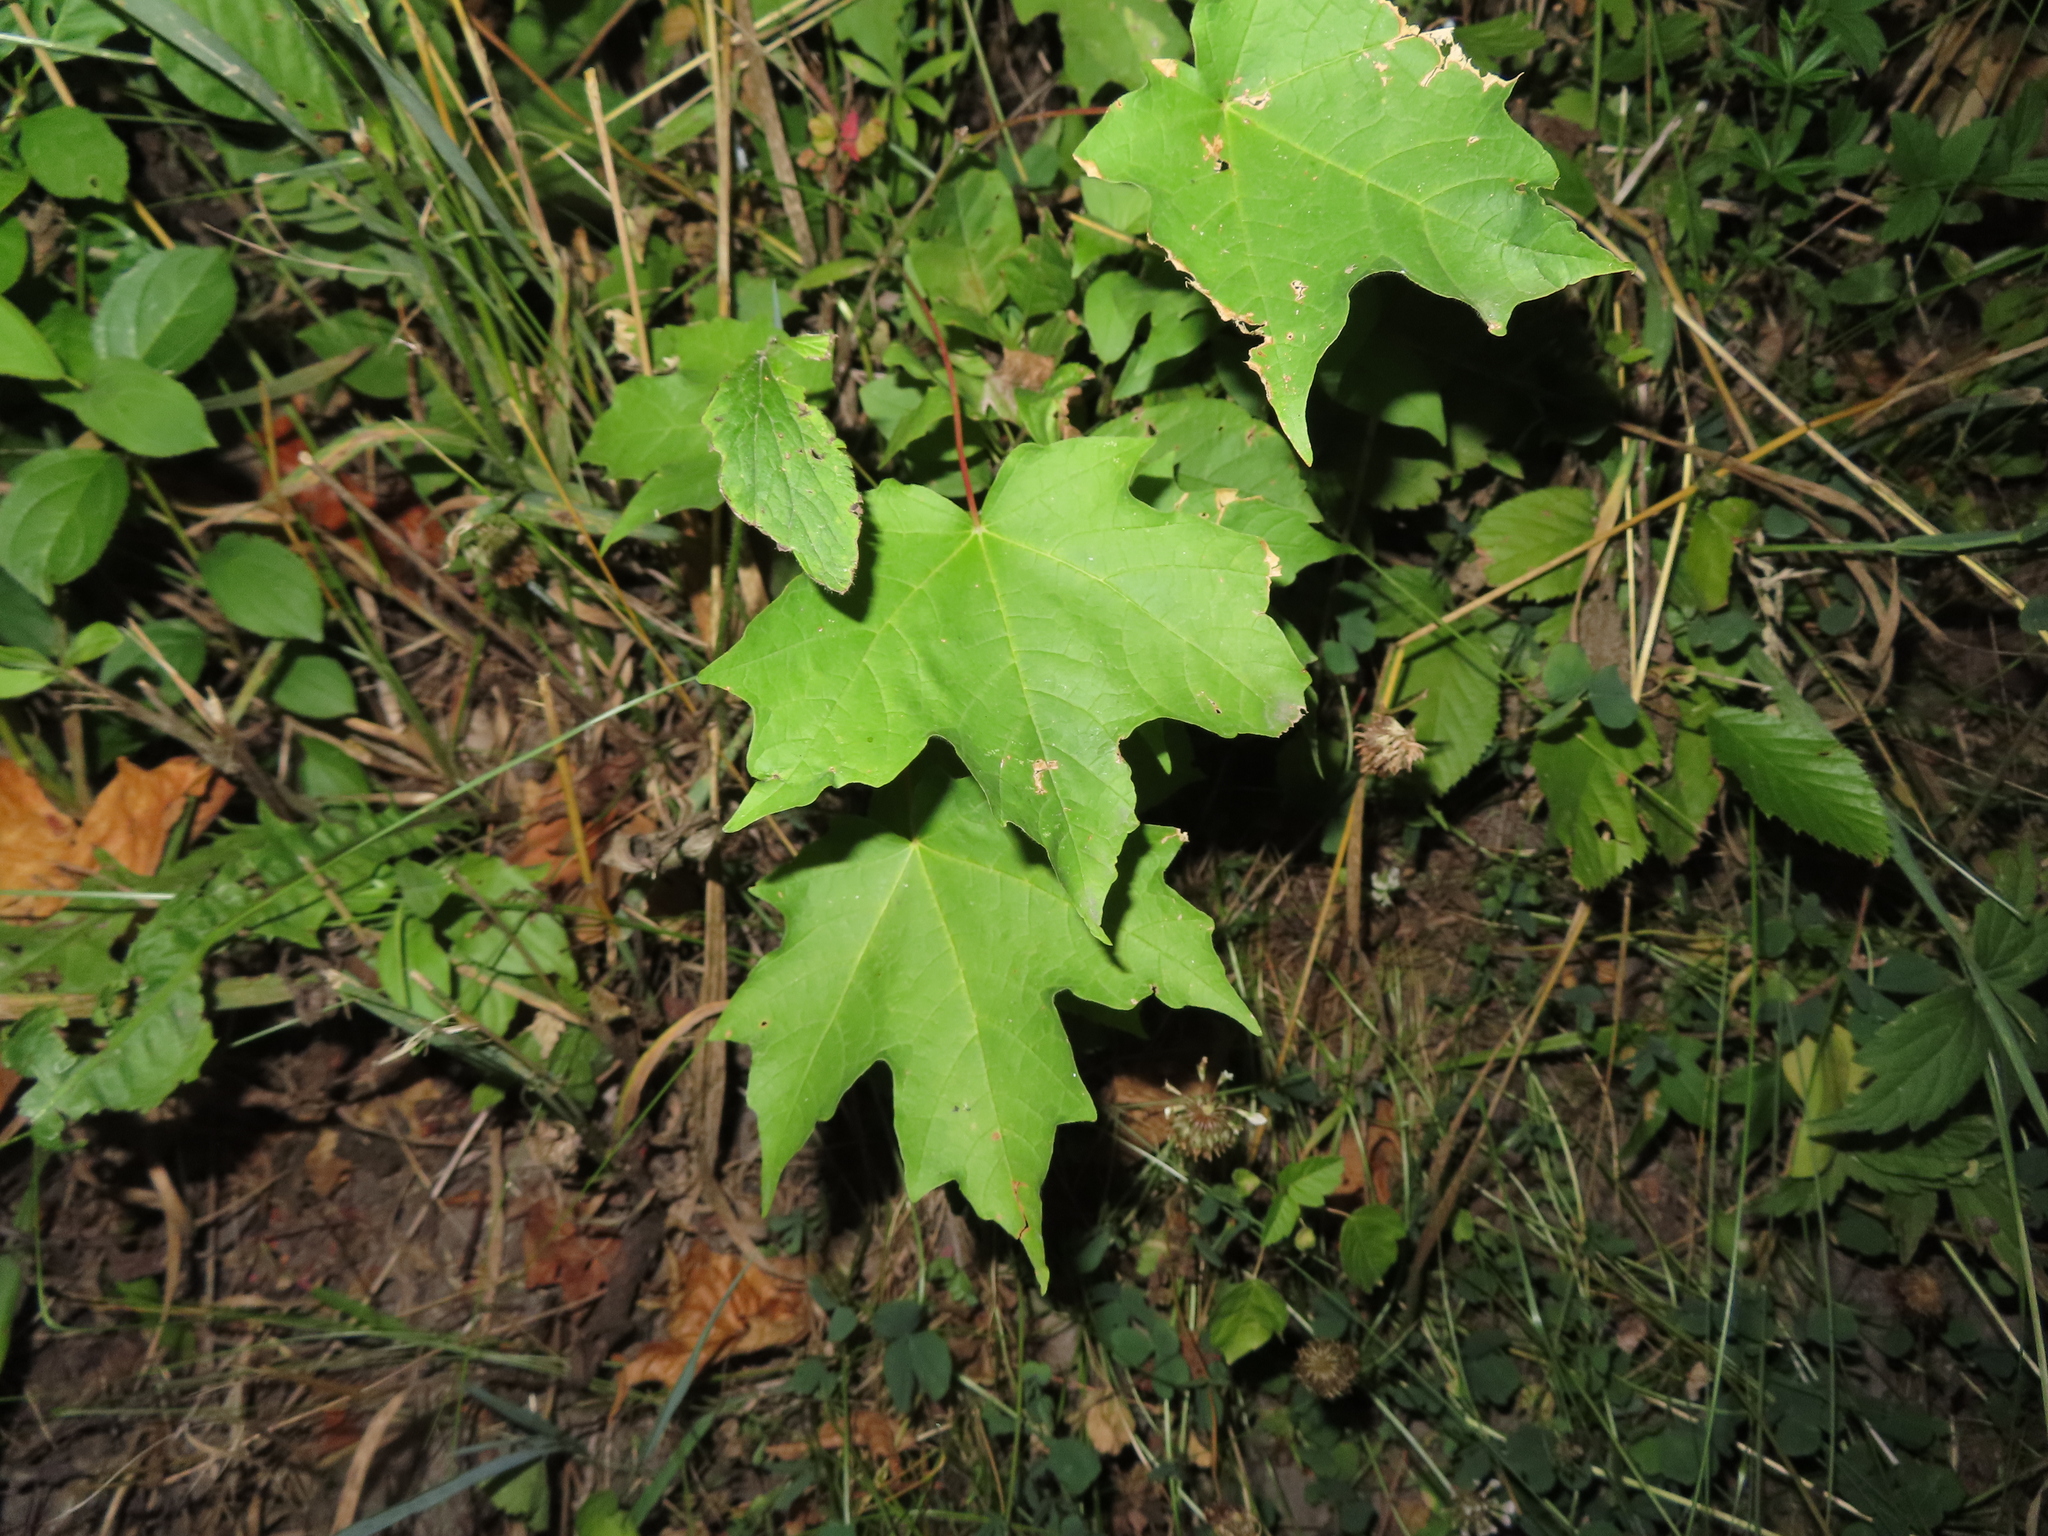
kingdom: Plantae
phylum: Tracheophyta
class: Magnoliopsida
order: Sapindales
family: Sapindaceae
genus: Acer
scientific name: Acer saccharum
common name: Sugar maple
